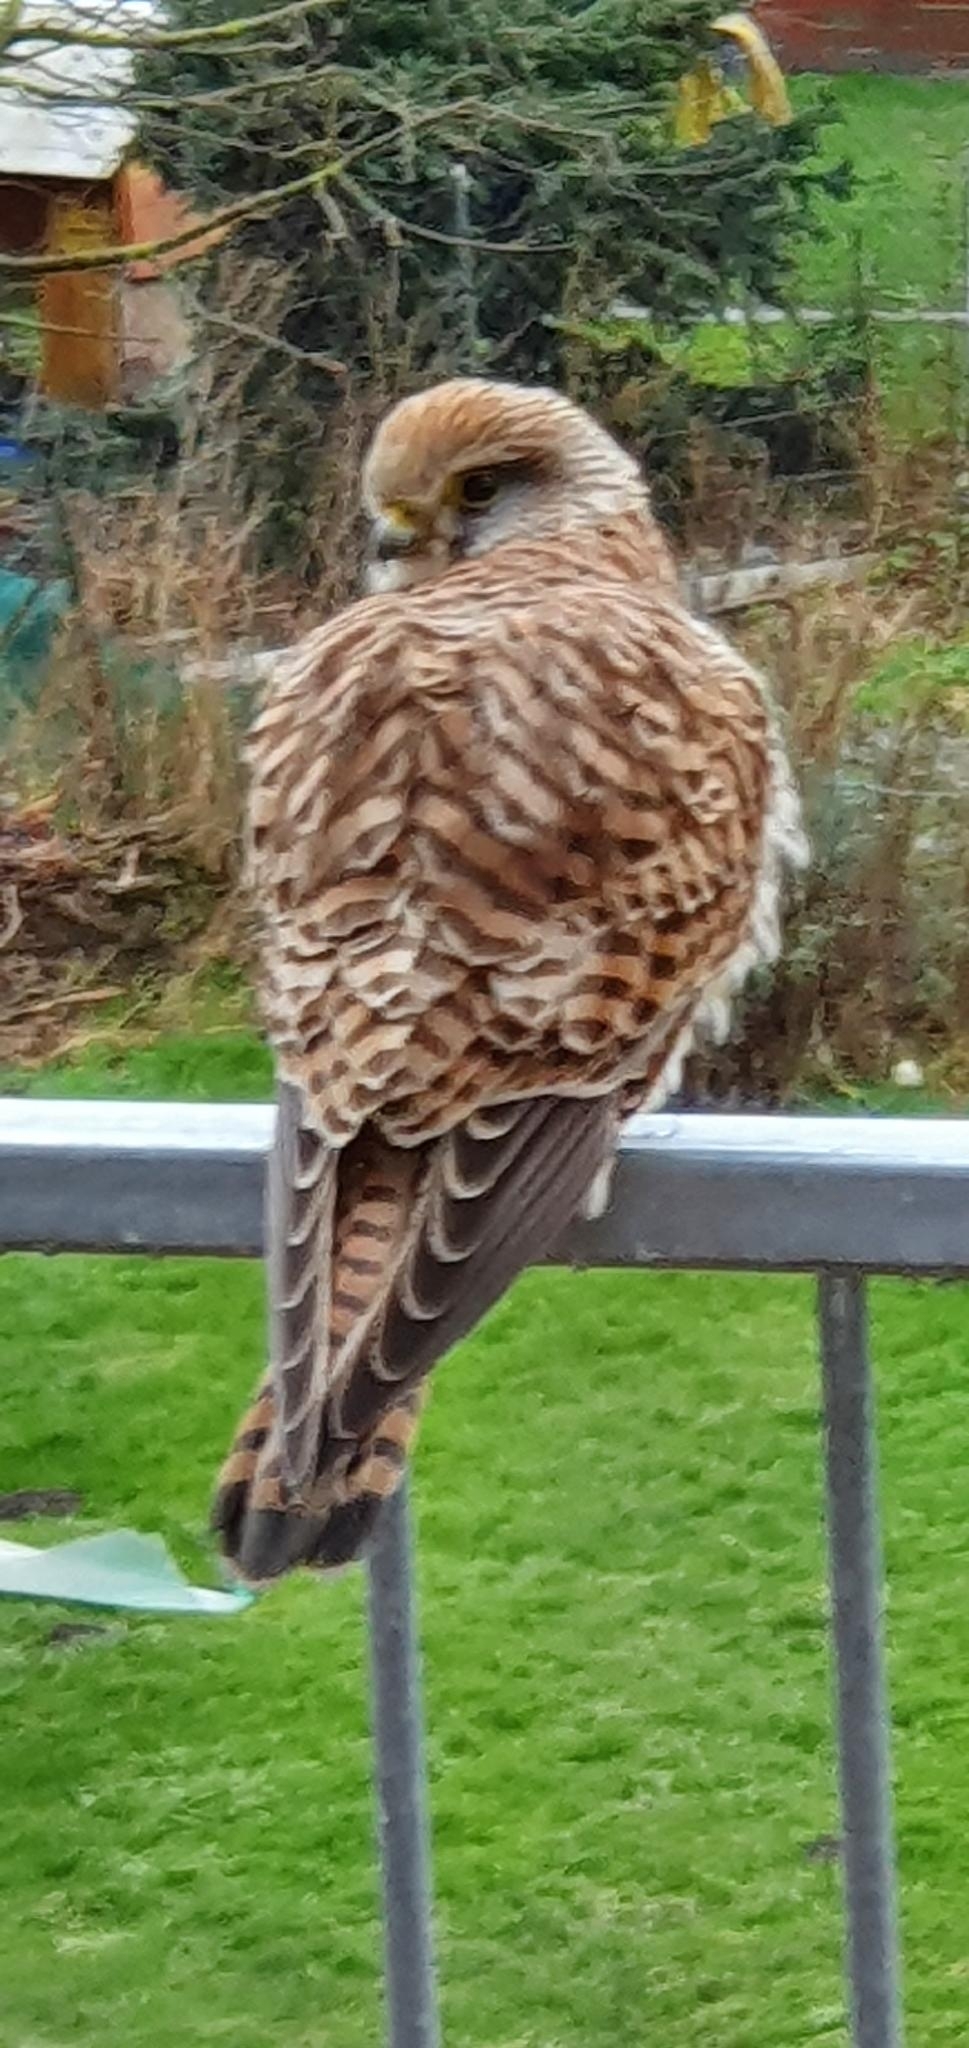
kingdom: Animalia
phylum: Chordata
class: Aves
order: Falconiformes
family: Falconidae
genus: Falco
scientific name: Falco tinnunculus
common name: Common kestrel
